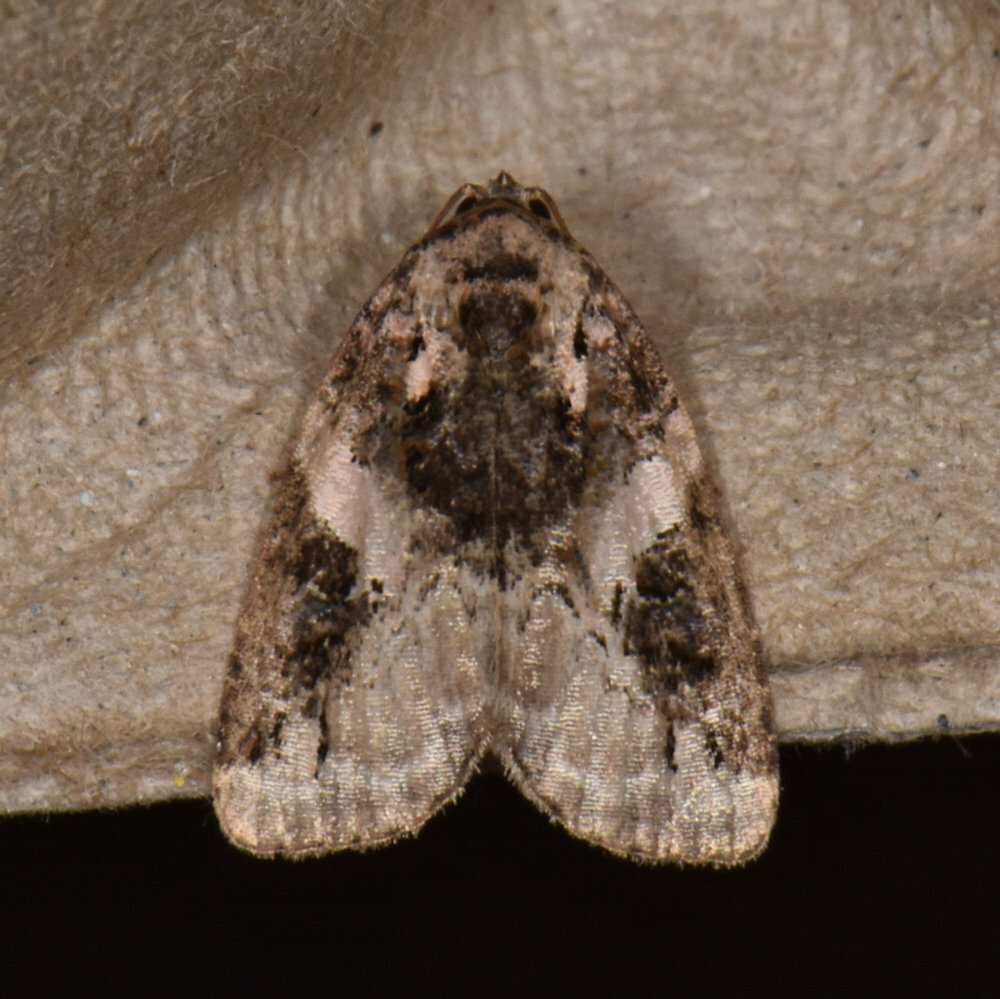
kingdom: Animalia
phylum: Arthropoda
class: Insecta
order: Lepidoptera
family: Noctuidae
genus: Pseudeustrotia
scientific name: Pseudeustrotia carneola
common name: Pink-barred lithacodia moth
